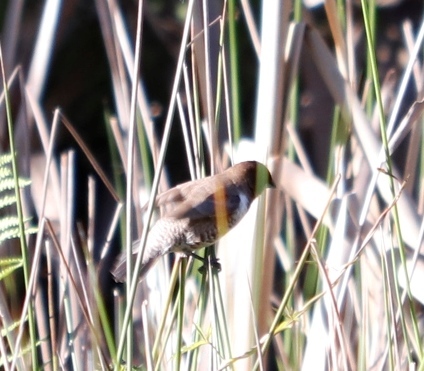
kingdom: Animalia
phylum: Chordata
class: Aves
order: Passeriformes
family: Estrildidae
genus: Lonchura
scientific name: Lonchura cucullata
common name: Bronze mannikin
